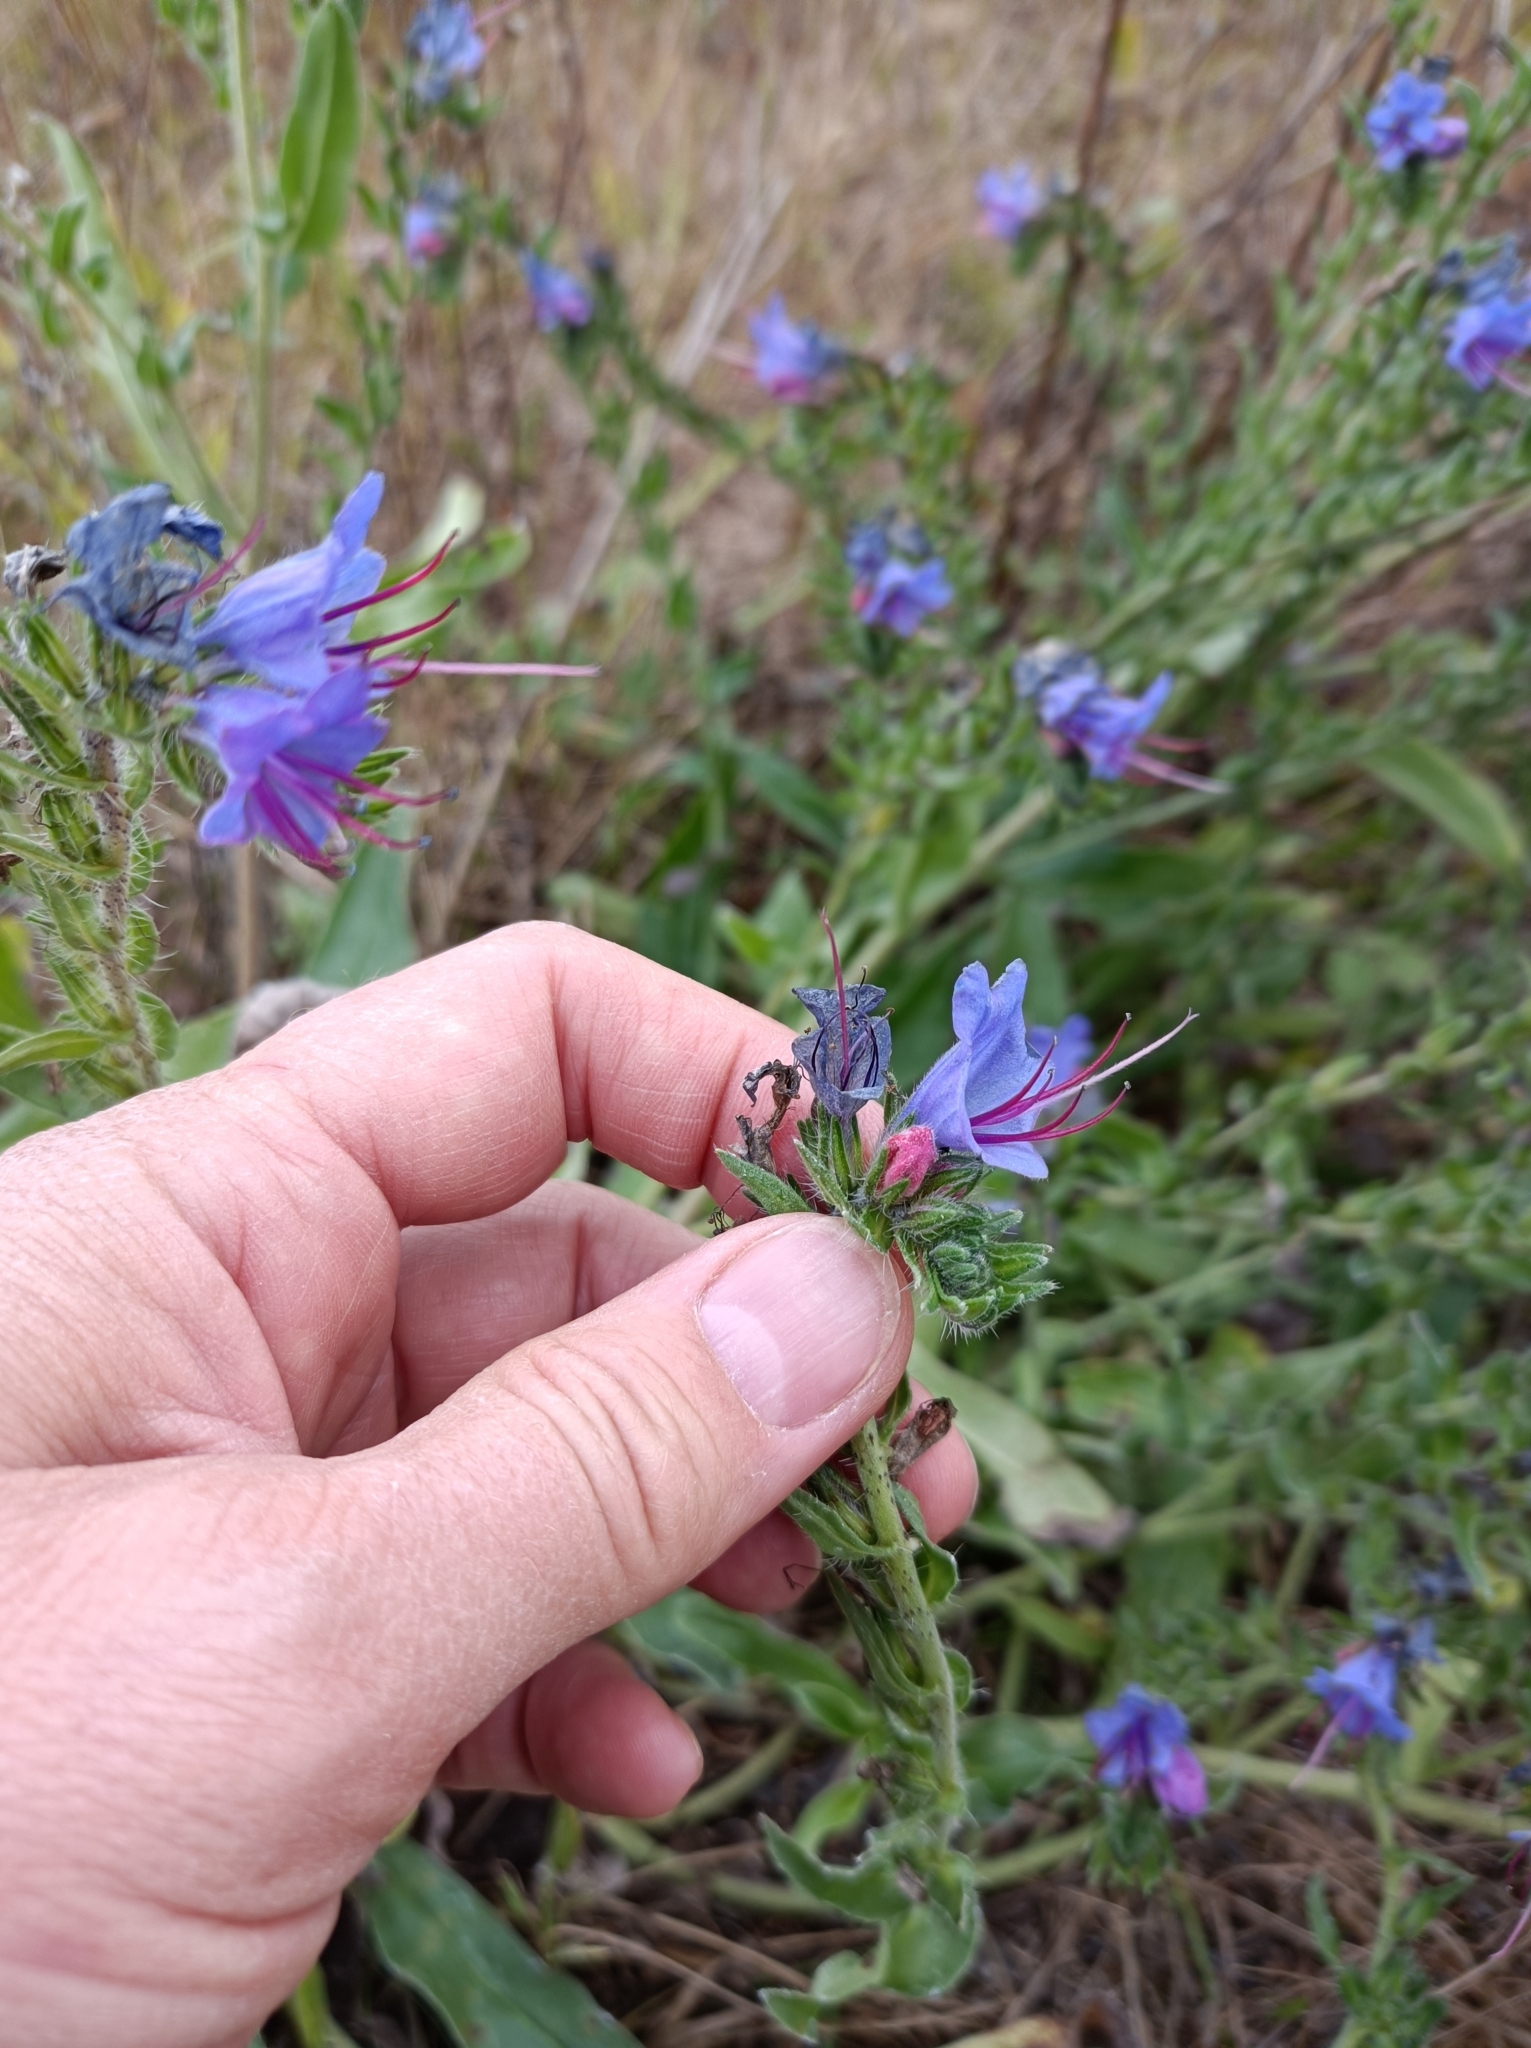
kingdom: Plantae
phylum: Tracheophyta
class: Magnoliopsida
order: Boraginales
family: Boraginaceae
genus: Echium
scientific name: Echium vulgare
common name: Common viper's bugloss
